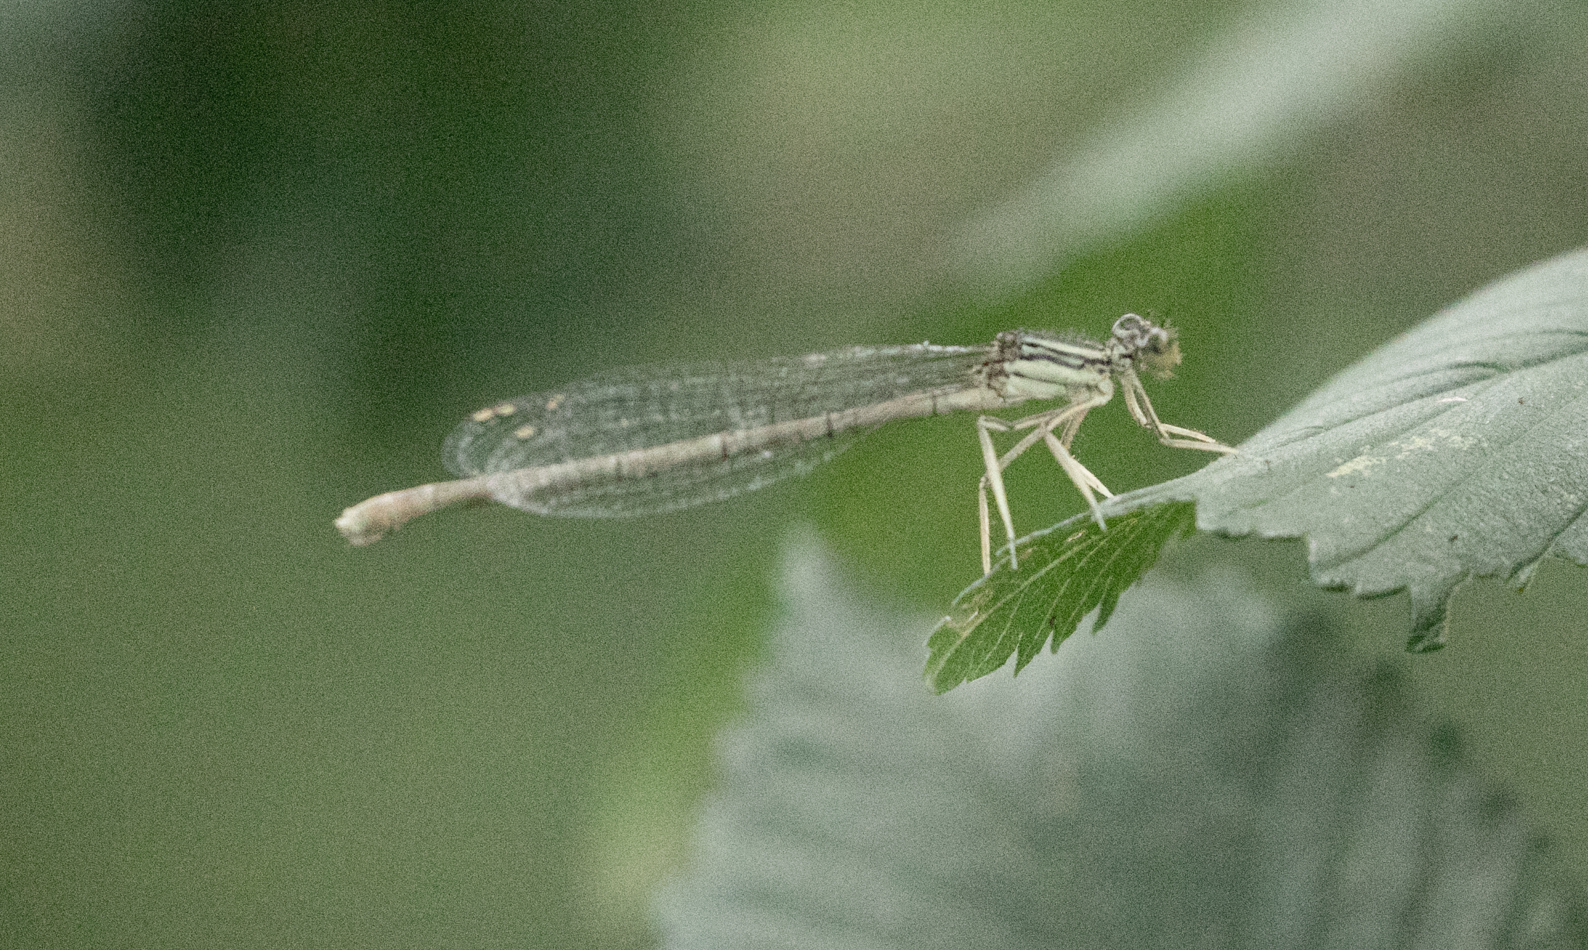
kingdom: Animalia
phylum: Arthropoda
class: Insecta
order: Odonata
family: Platycnemididae
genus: Platycnemis
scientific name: Platycnemis pennipes
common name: White-legged damselfly
